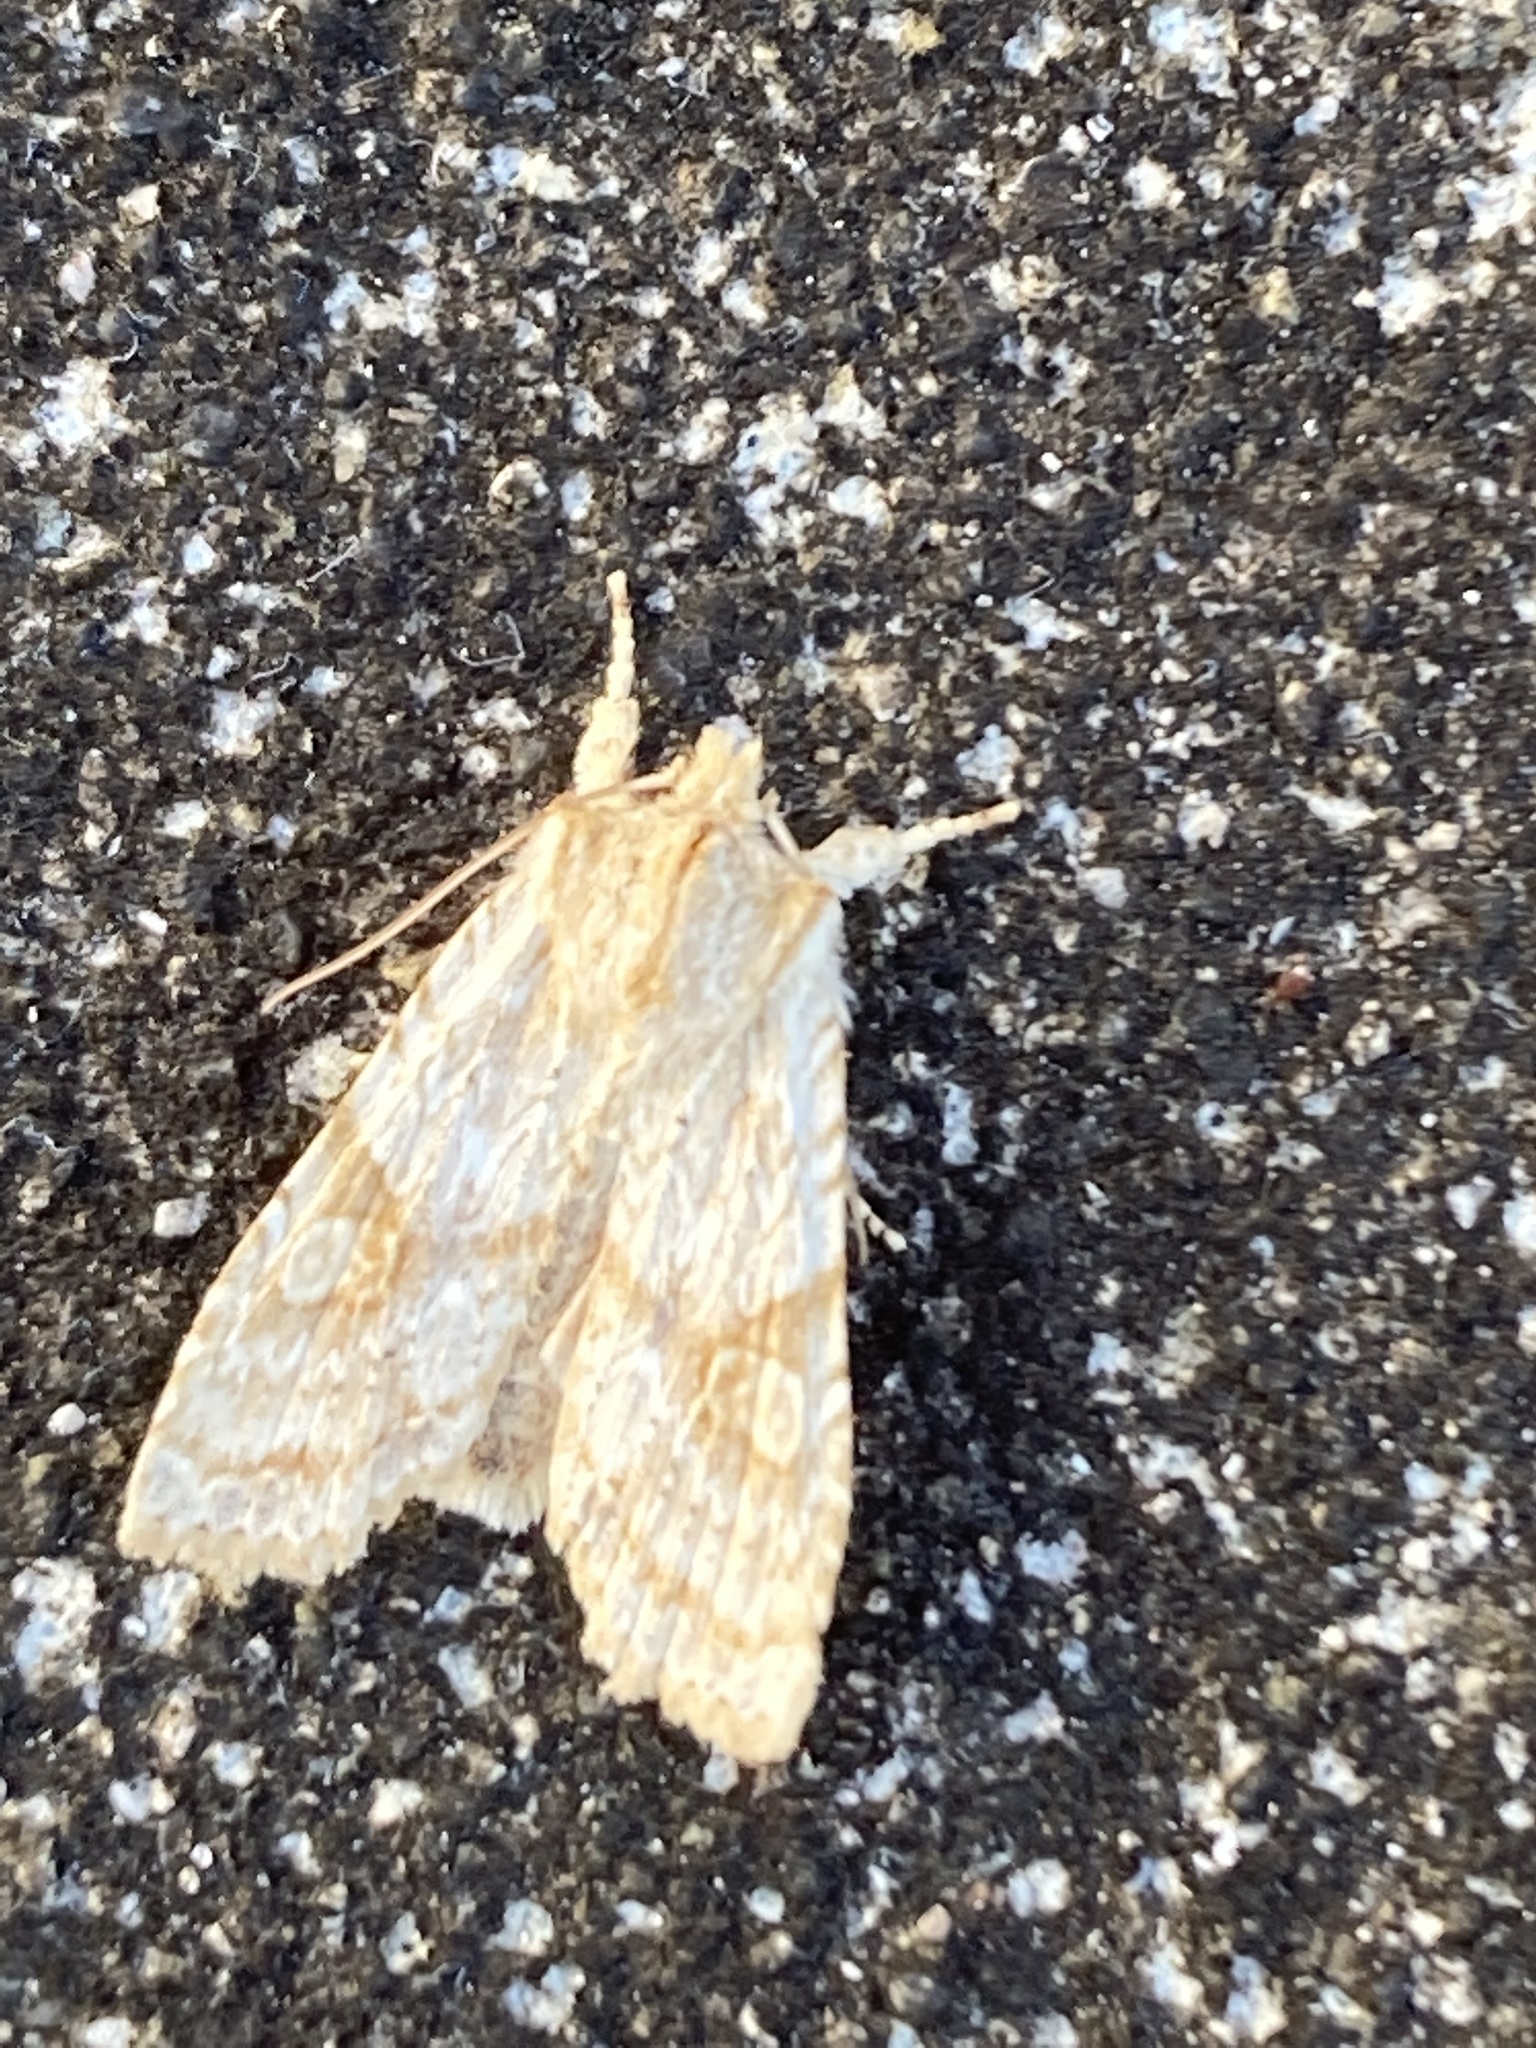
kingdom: Animalia
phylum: Arthropoda
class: Insecta
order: Lepidoptera
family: Noctuidae
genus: Lithophane
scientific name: Lithophane bethunei
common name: Bethune's pinion moth
